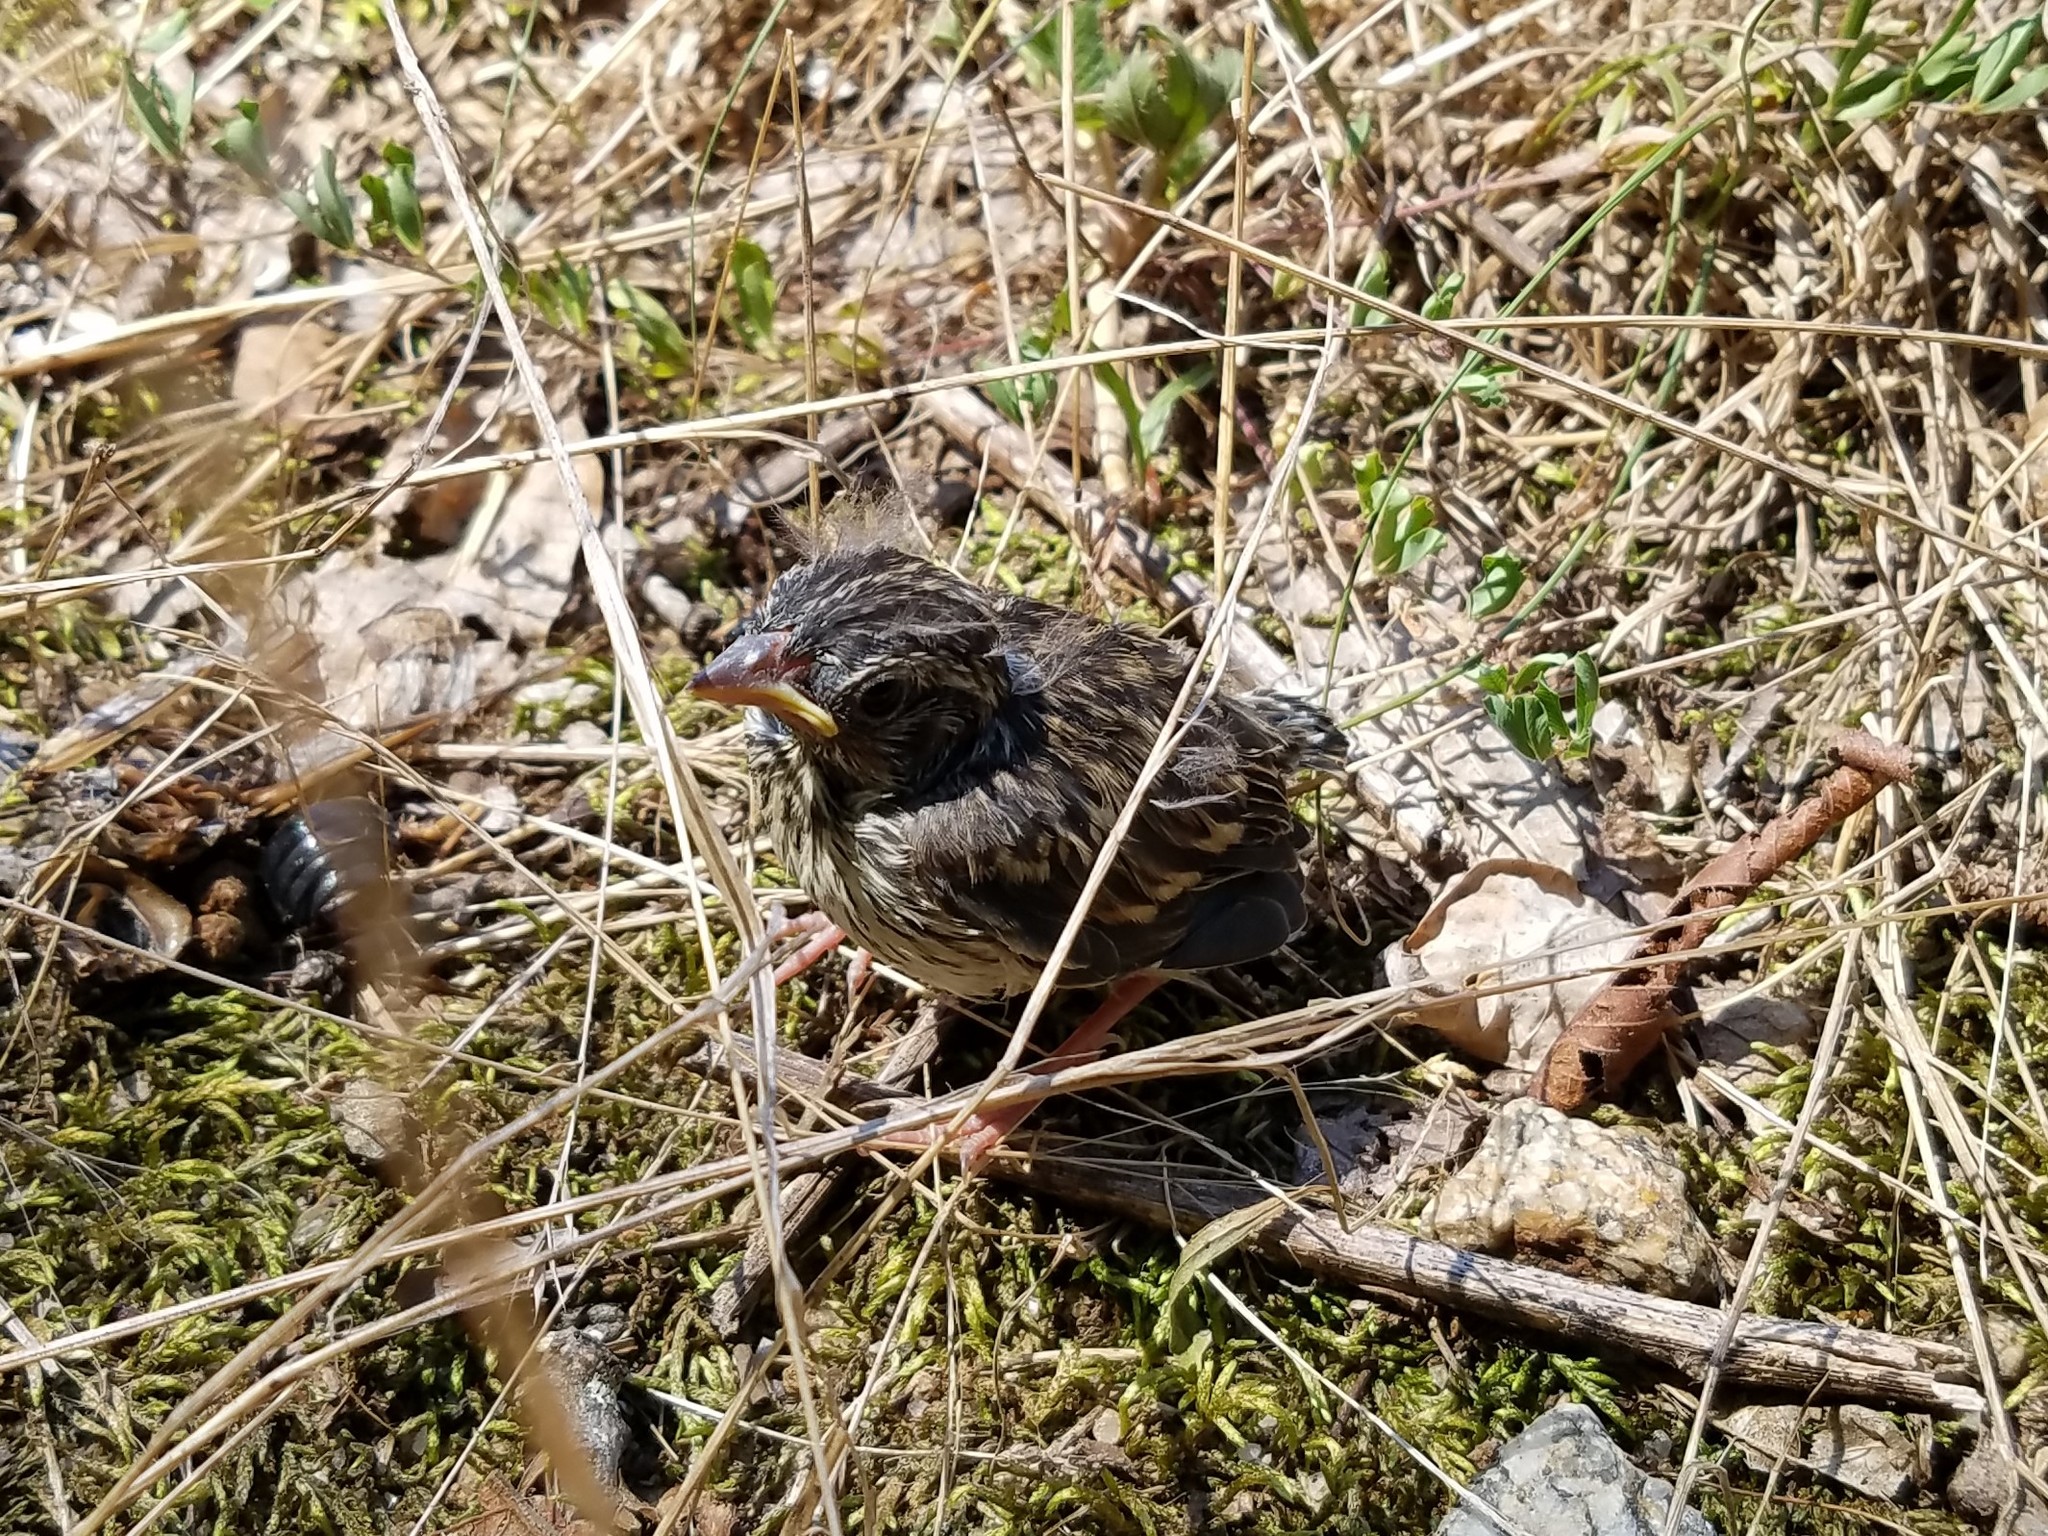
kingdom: Animalia
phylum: Chordata
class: Aves
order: Passeriformes
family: Passerellidae
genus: Spizella
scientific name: Spizella passerina
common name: Chipping sparrow
